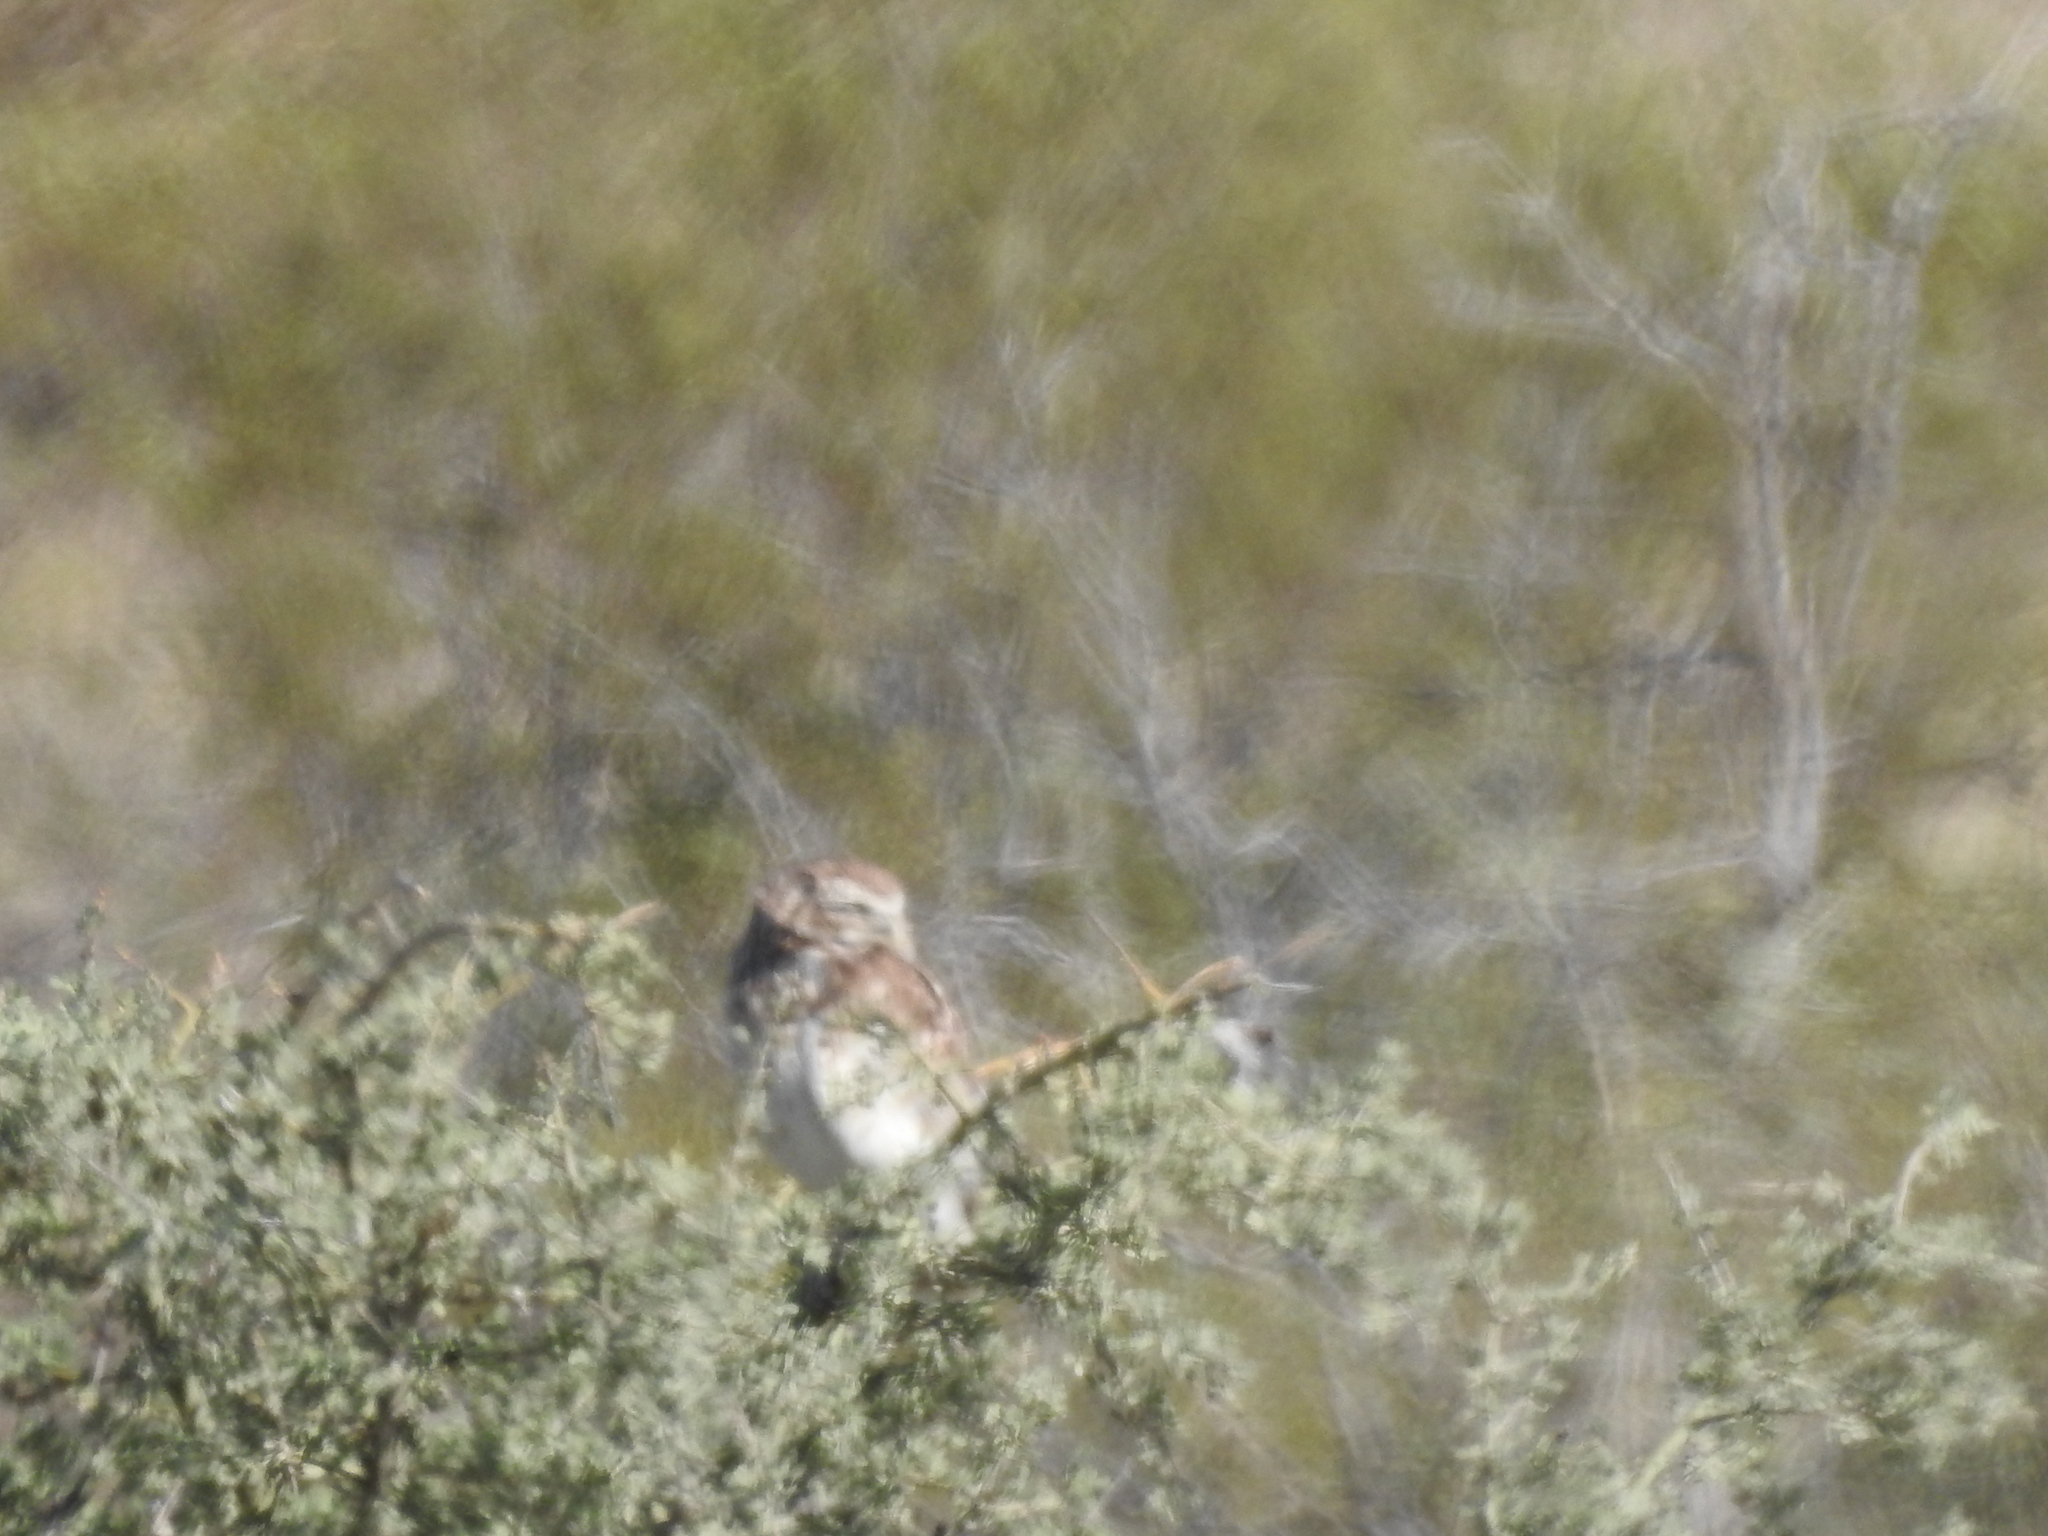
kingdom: Animalia
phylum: Chordata
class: Aves
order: Strigiformes
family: Strigidae
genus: Athene
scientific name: Athene cunicularia
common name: Burrowing owl
